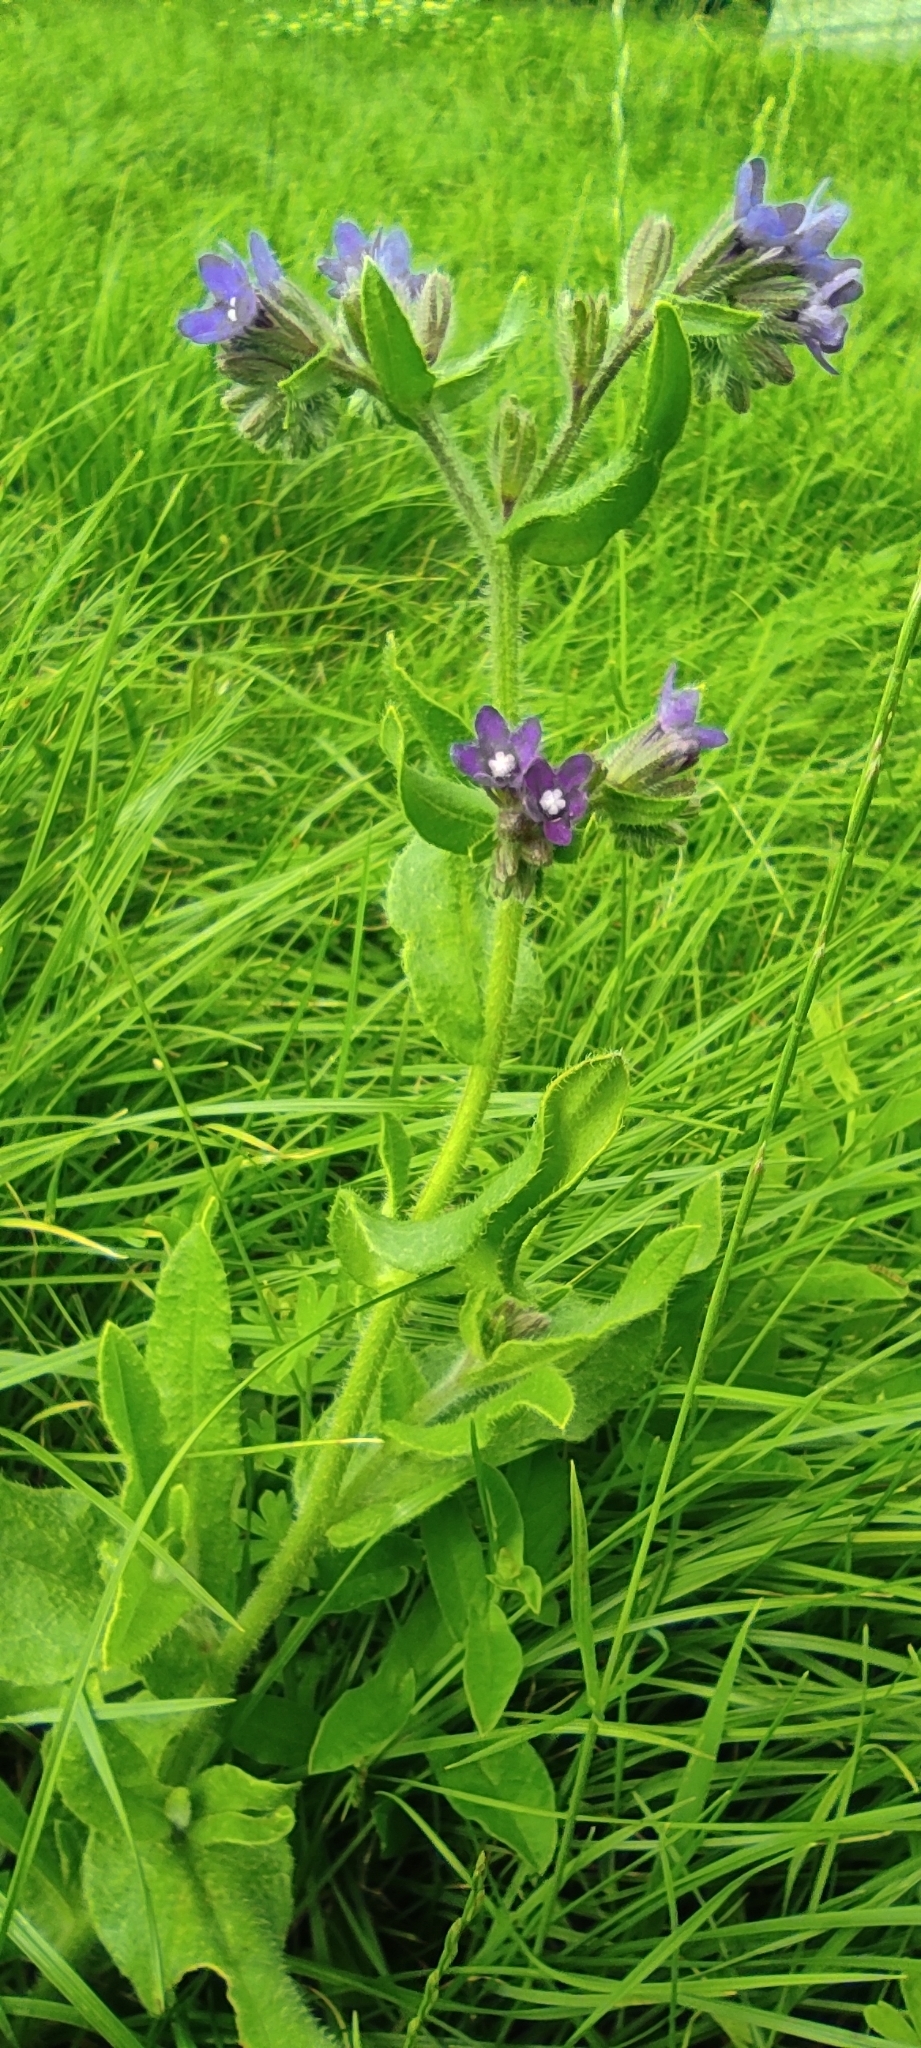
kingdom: Plantae
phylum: Tracheophyta
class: Magnoliopsida
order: Boraginales
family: Boraginaceae
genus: Anchusa
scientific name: Anchusa officinalis
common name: Alkanet
